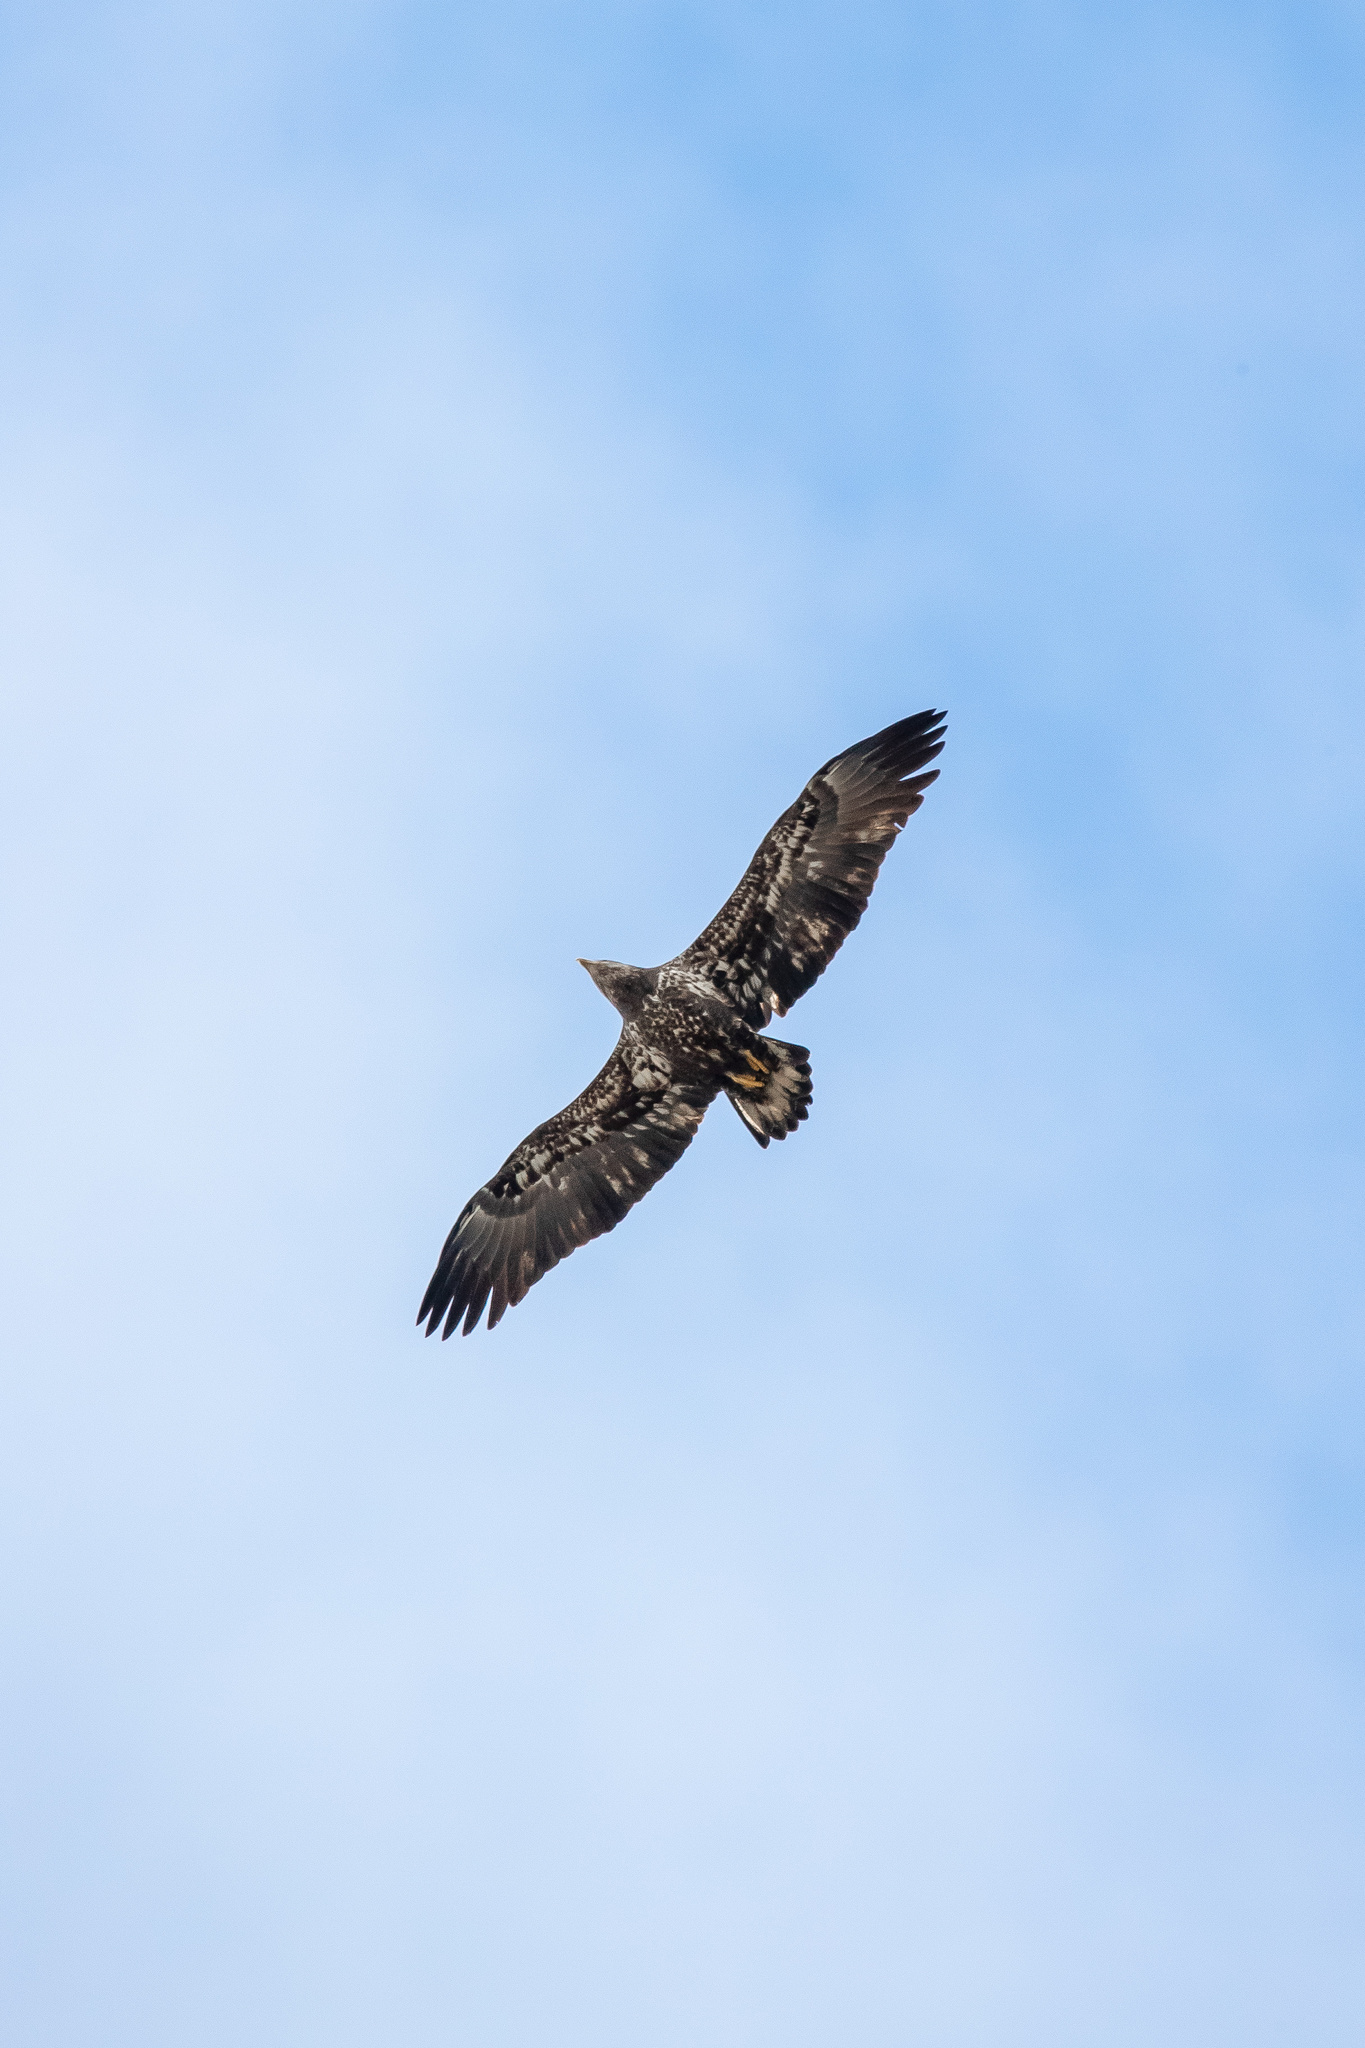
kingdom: Animalia
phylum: Chordata
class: Aves
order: Accipitriformes
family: Accipitridae
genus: Haliaeetus
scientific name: Haliaeetus leucocephalus
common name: Bald eagle
